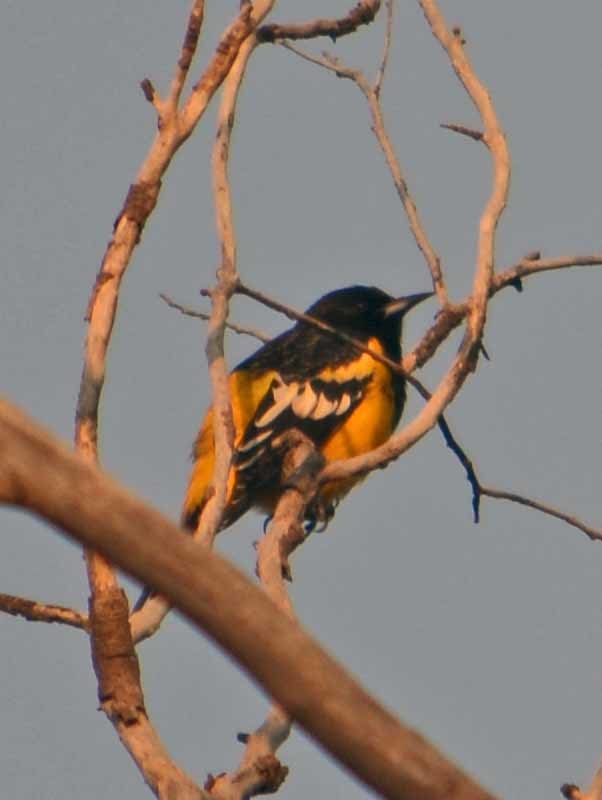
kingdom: Animalia
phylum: Chordata
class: Aves
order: Passeriformes
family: Icteridae
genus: Icterus
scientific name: Icterus parisorum
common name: Scott's oriole
